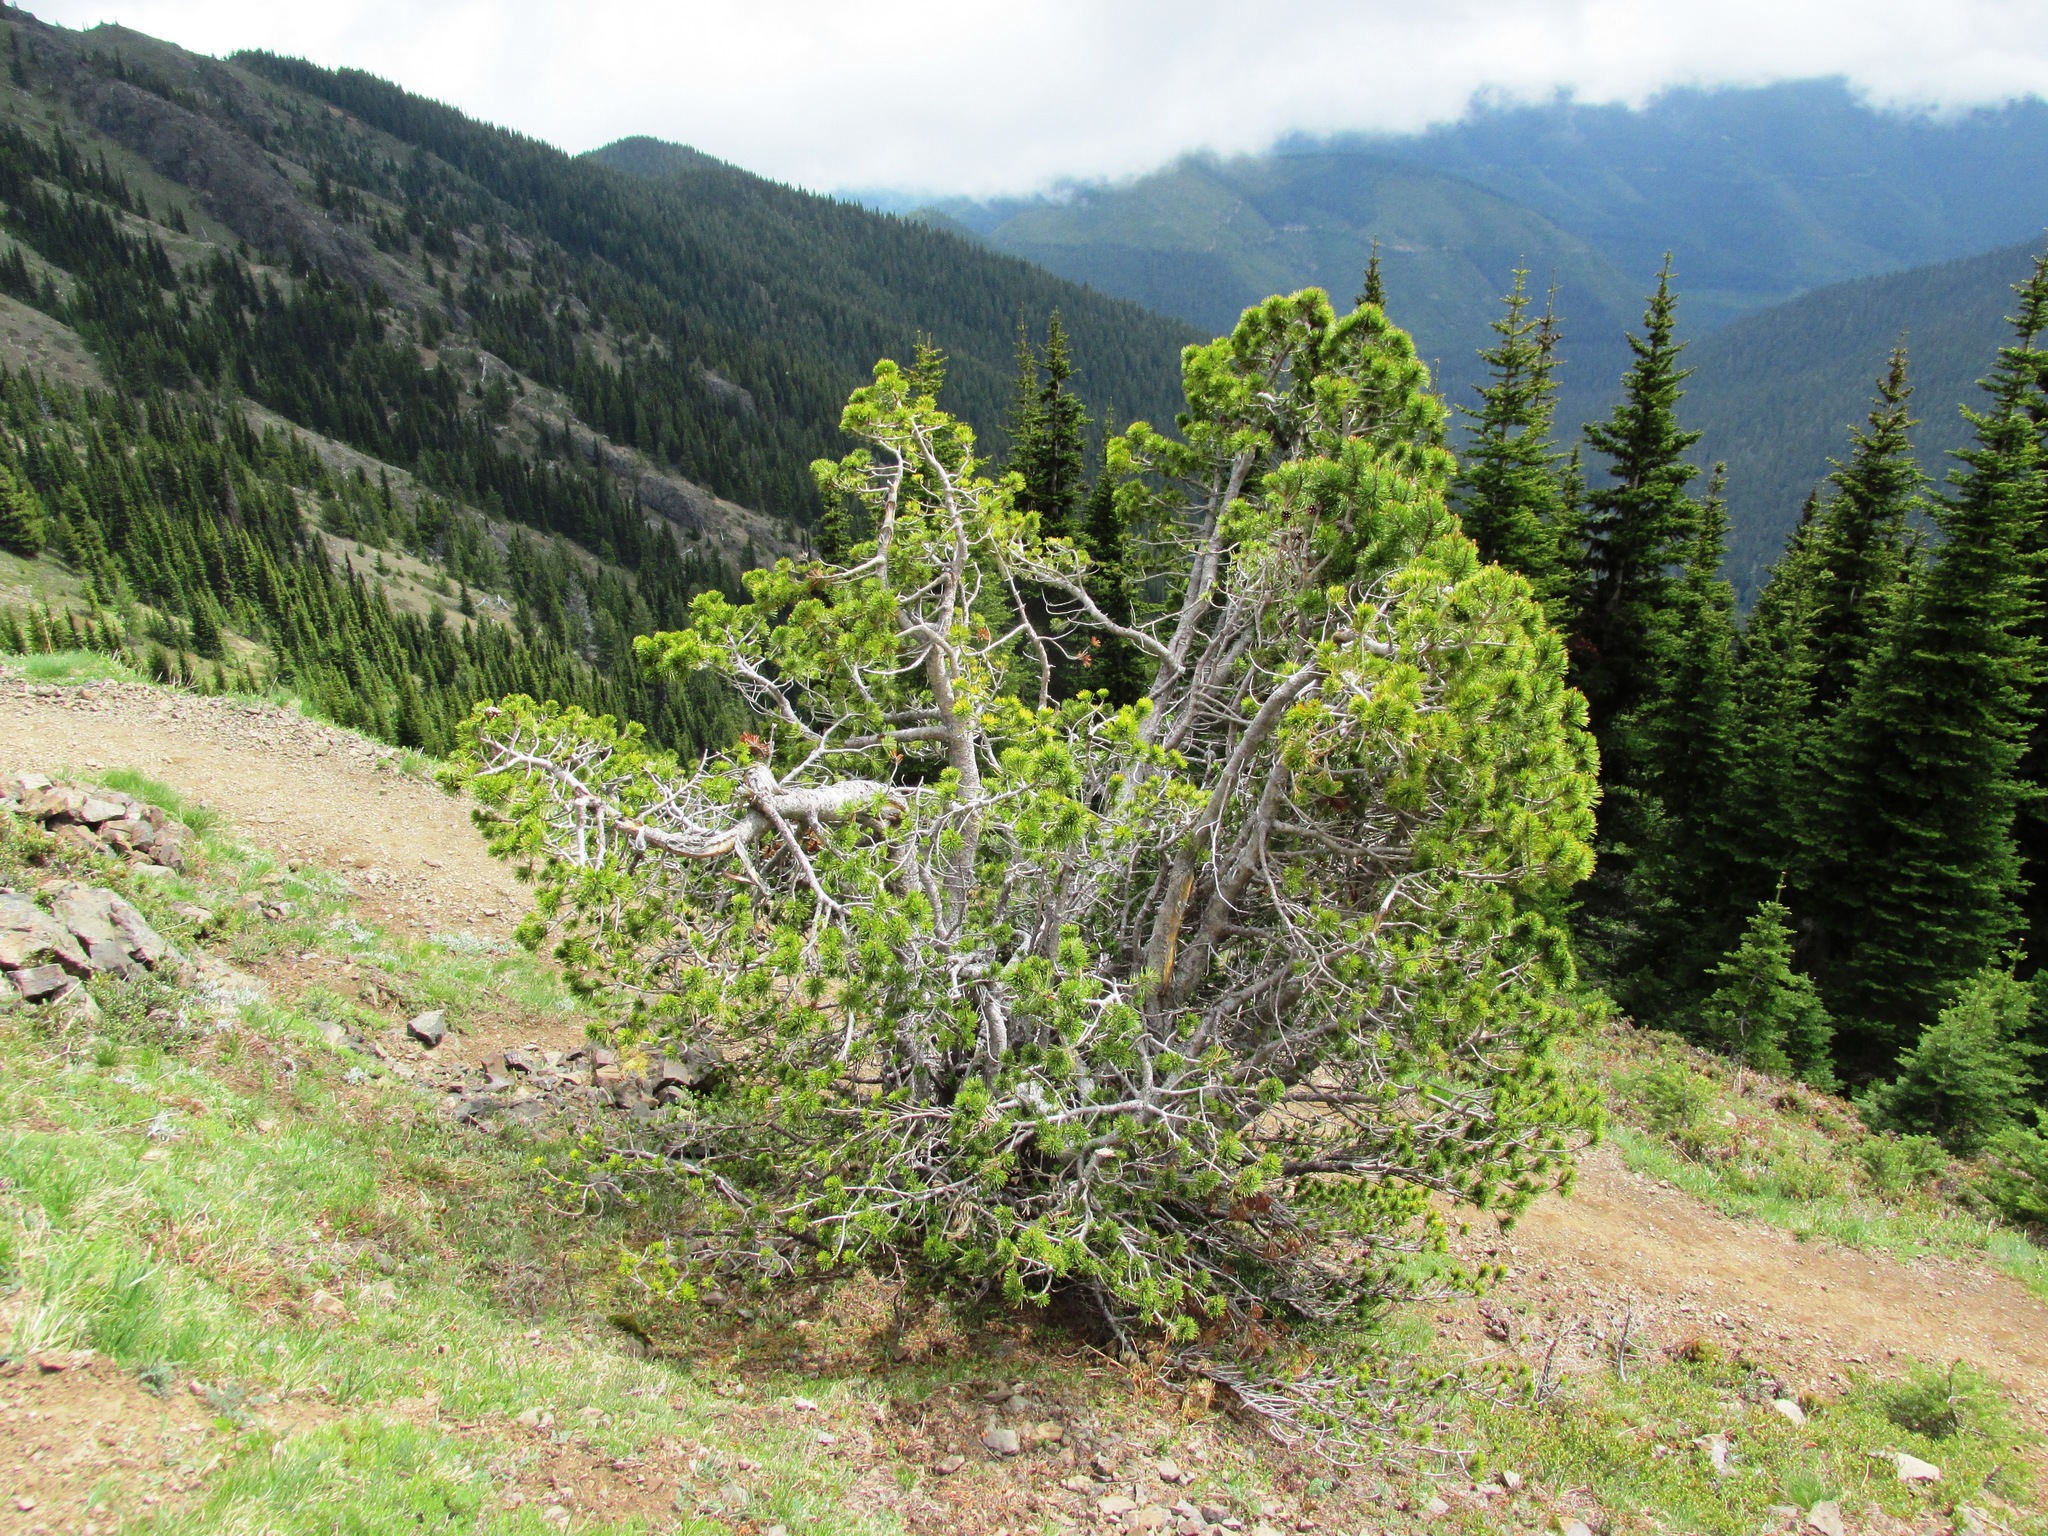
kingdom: Plantae
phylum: Tracheophyta
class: Pinopsida
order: Pinales
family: Pinaceae
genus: Pinus
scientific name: Pinus albicaulis
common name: Whitebark pine
